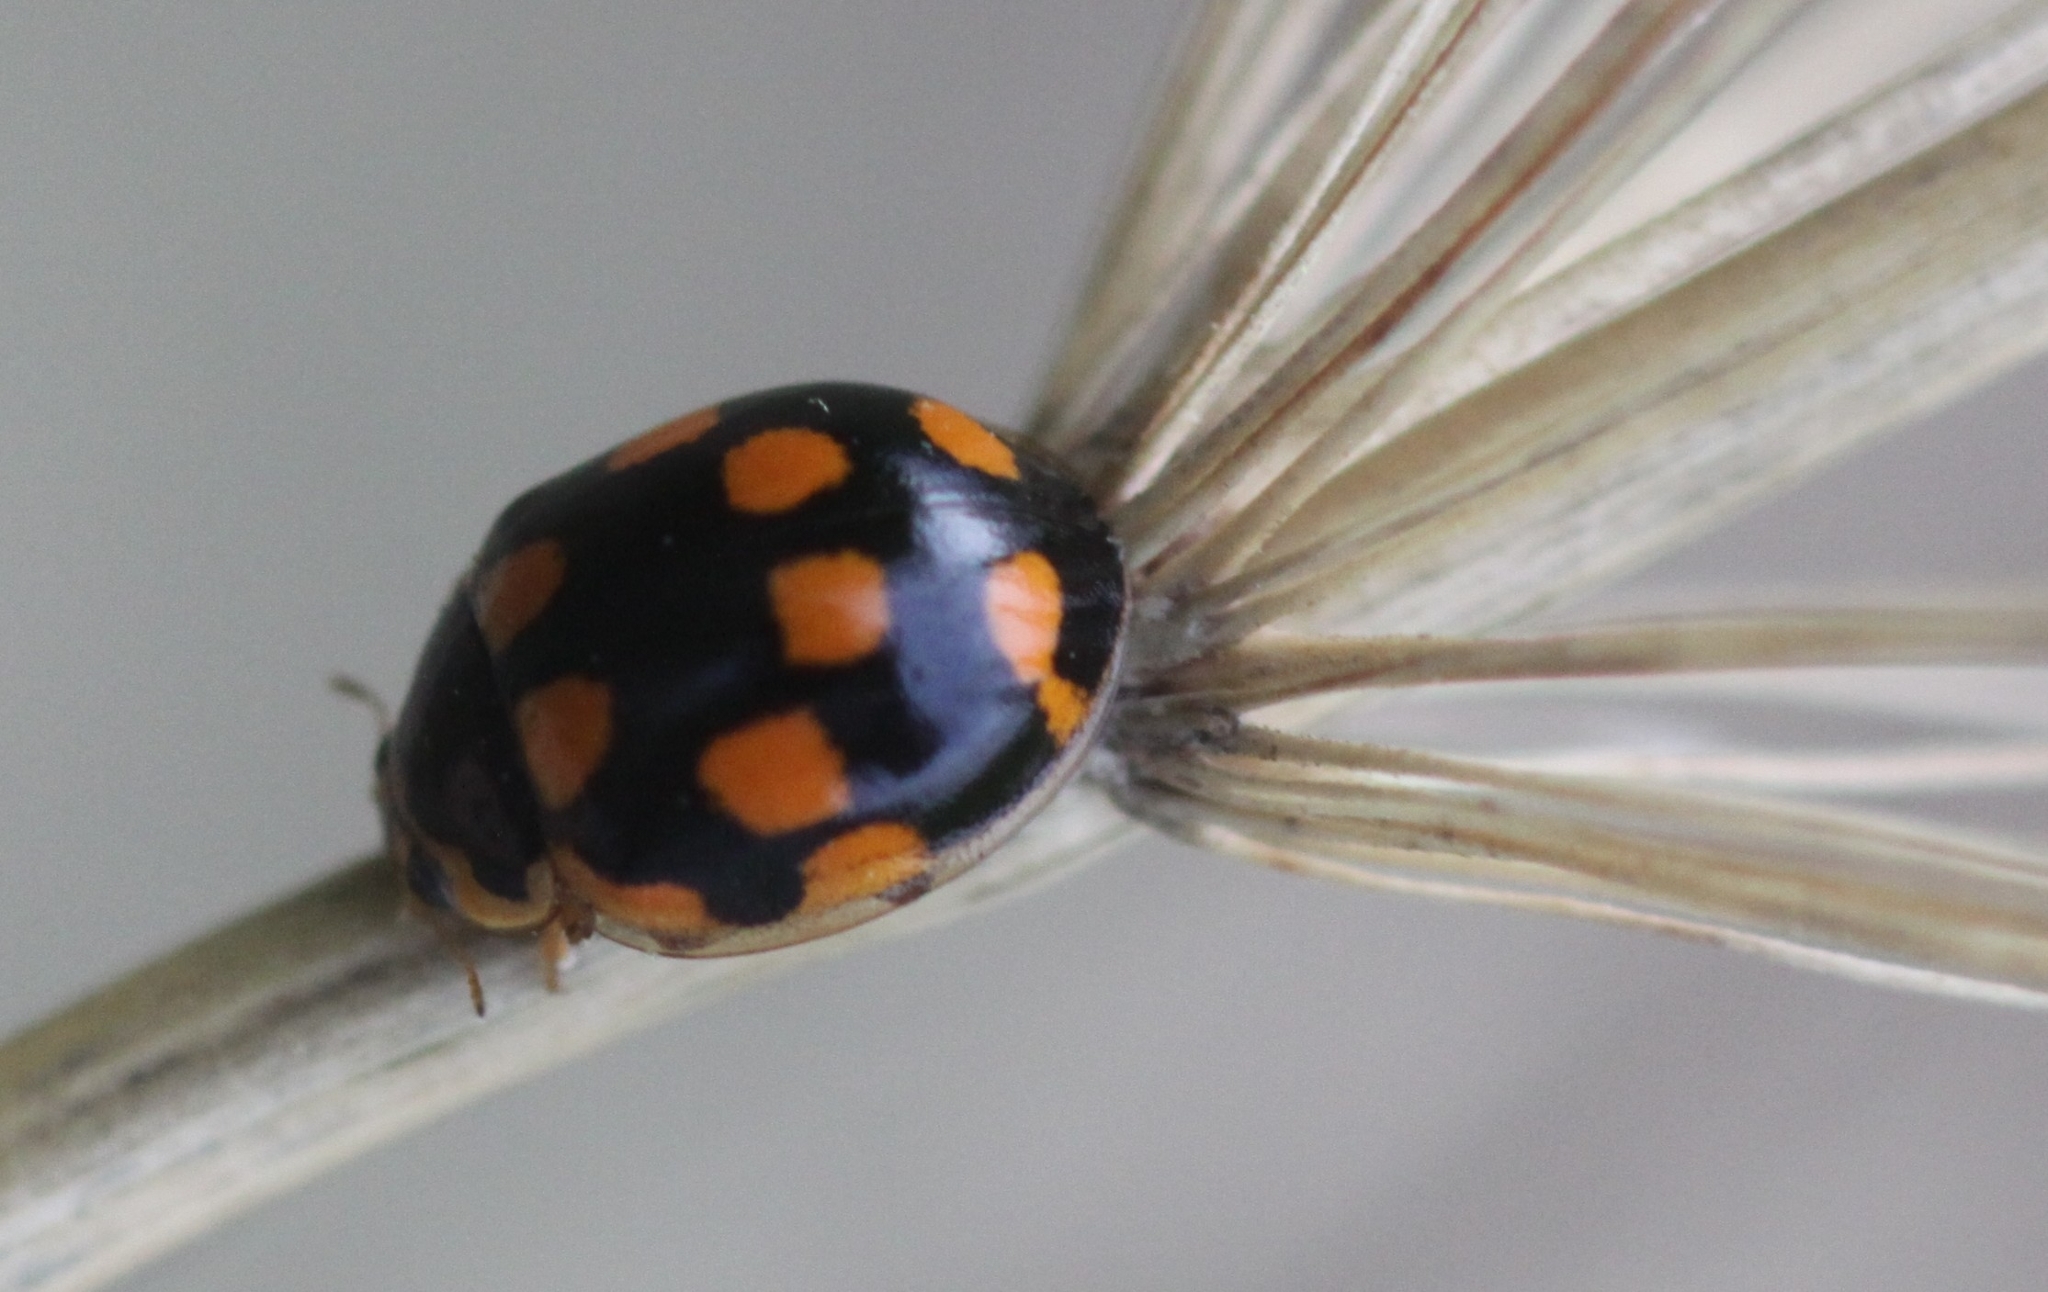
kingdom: Animalia
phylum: Arthropoda
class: Insecta
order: Coleoptera
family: Coccinellidae
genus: Propylaea
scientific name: Propylaea quatuordecimpunctata
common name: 14-spotted ladybird beetle
